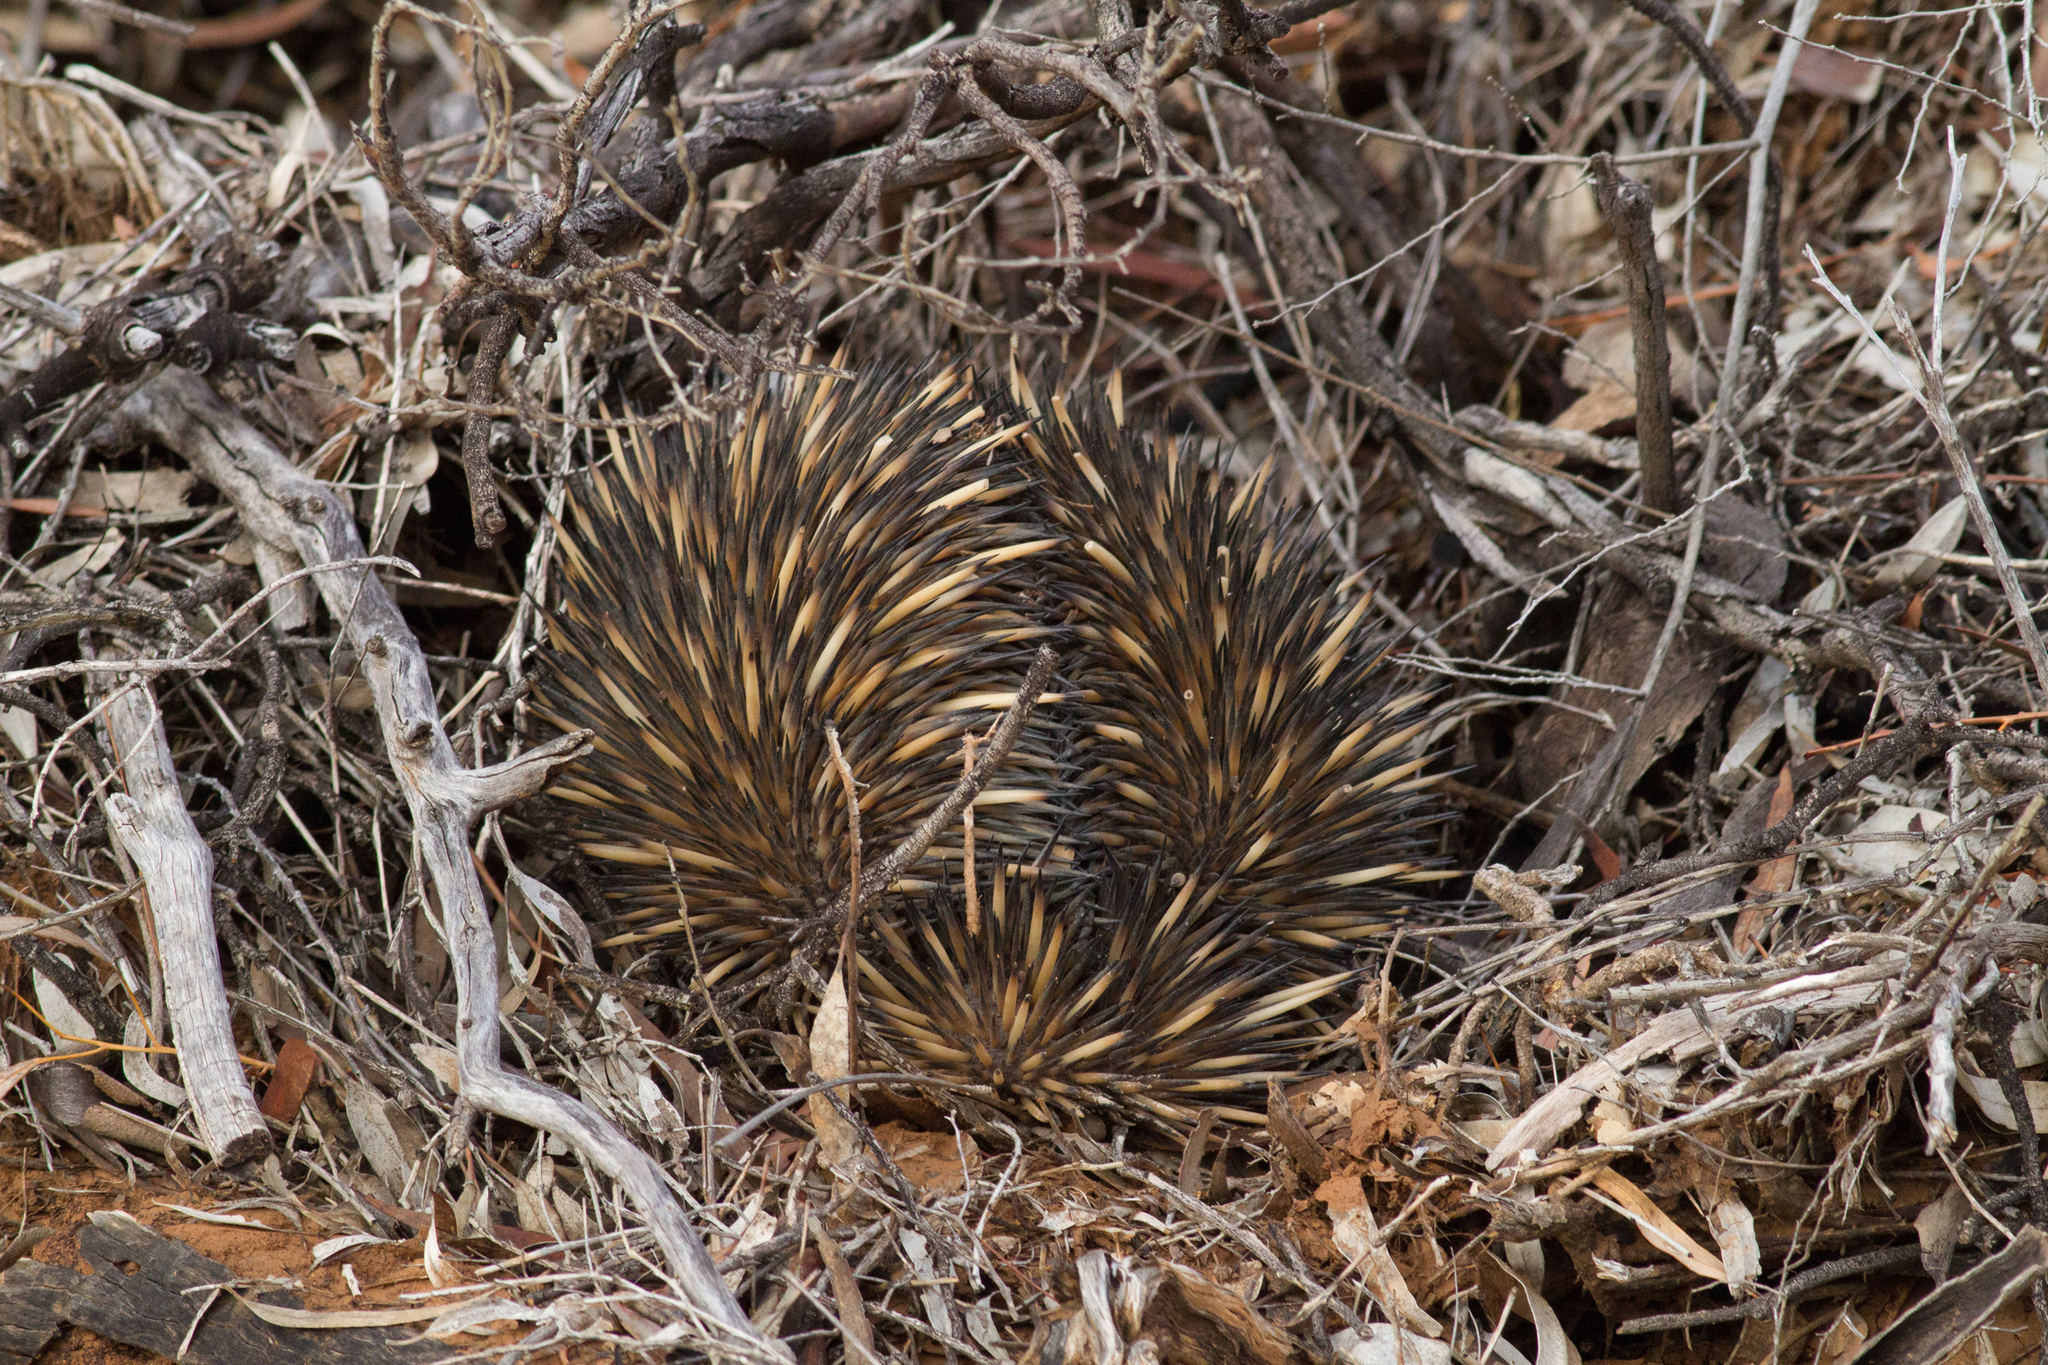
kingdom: Animalia
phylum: Chordata
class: Mammalia
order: Monotremata
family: Tachyglossidae
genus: Tachyglossus
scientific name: Tachyglossus aculeatus
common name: Short-beaked echidna
